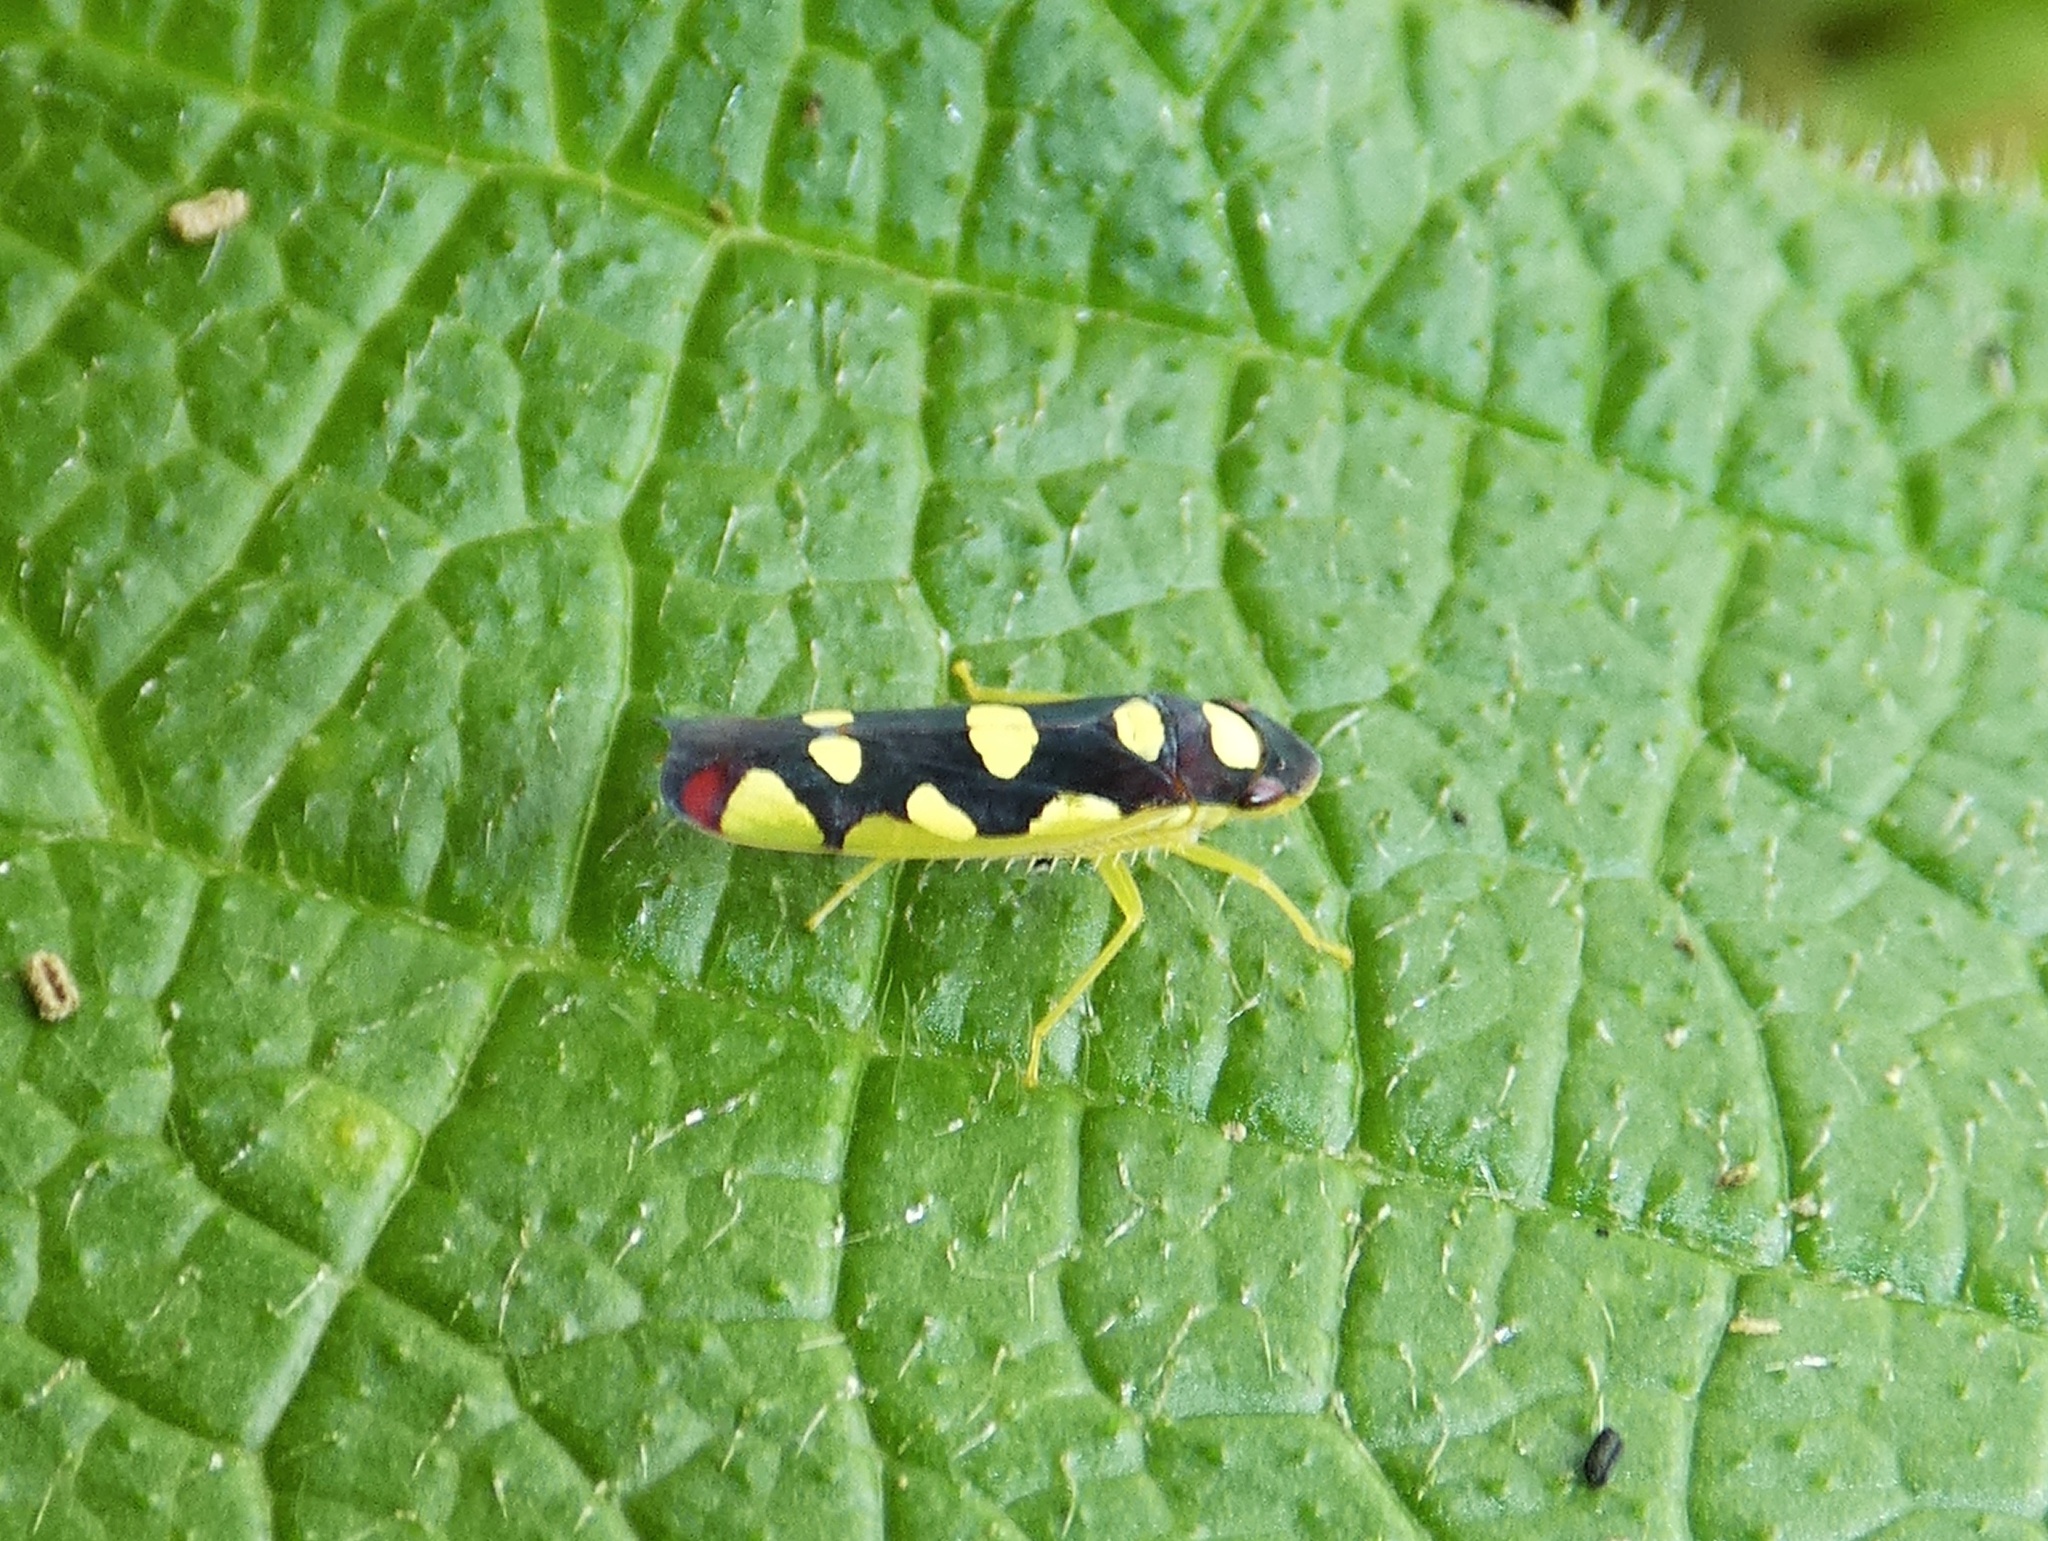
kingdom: Animalia
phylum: Arthropoda
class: Insecta
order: Hemiptera
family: Cicadellidae
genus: Baleja
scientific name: Baleja flavoguttata
